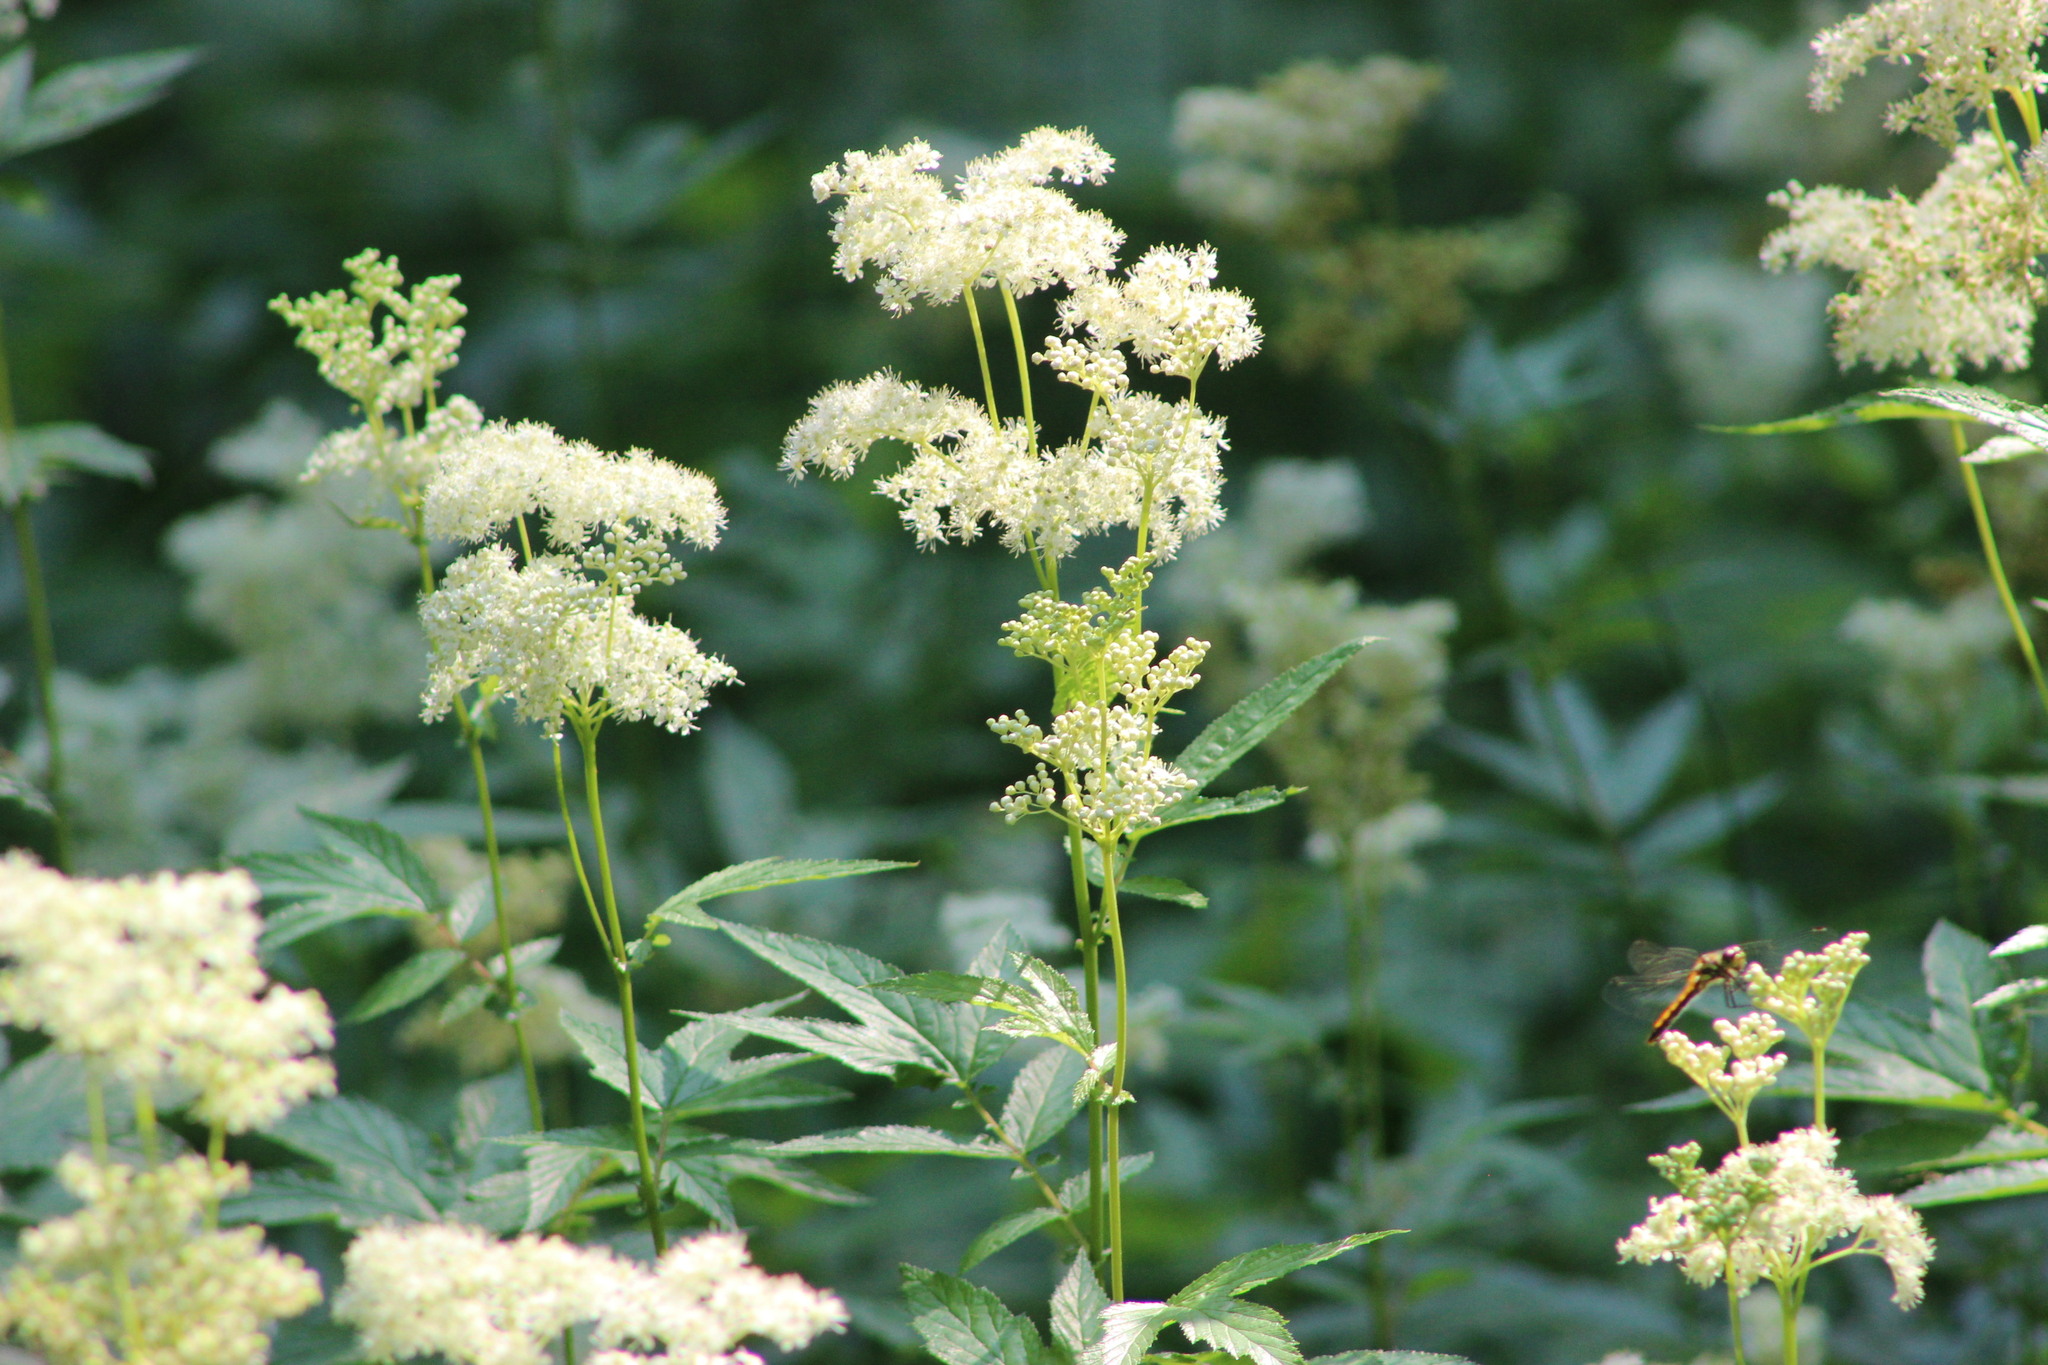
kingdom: Animalia
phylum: Arthropoda
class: Insecta
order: Odonata
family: Libellulidae
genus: Sympetrum
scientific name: Sympetrum danae
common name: Black darter
